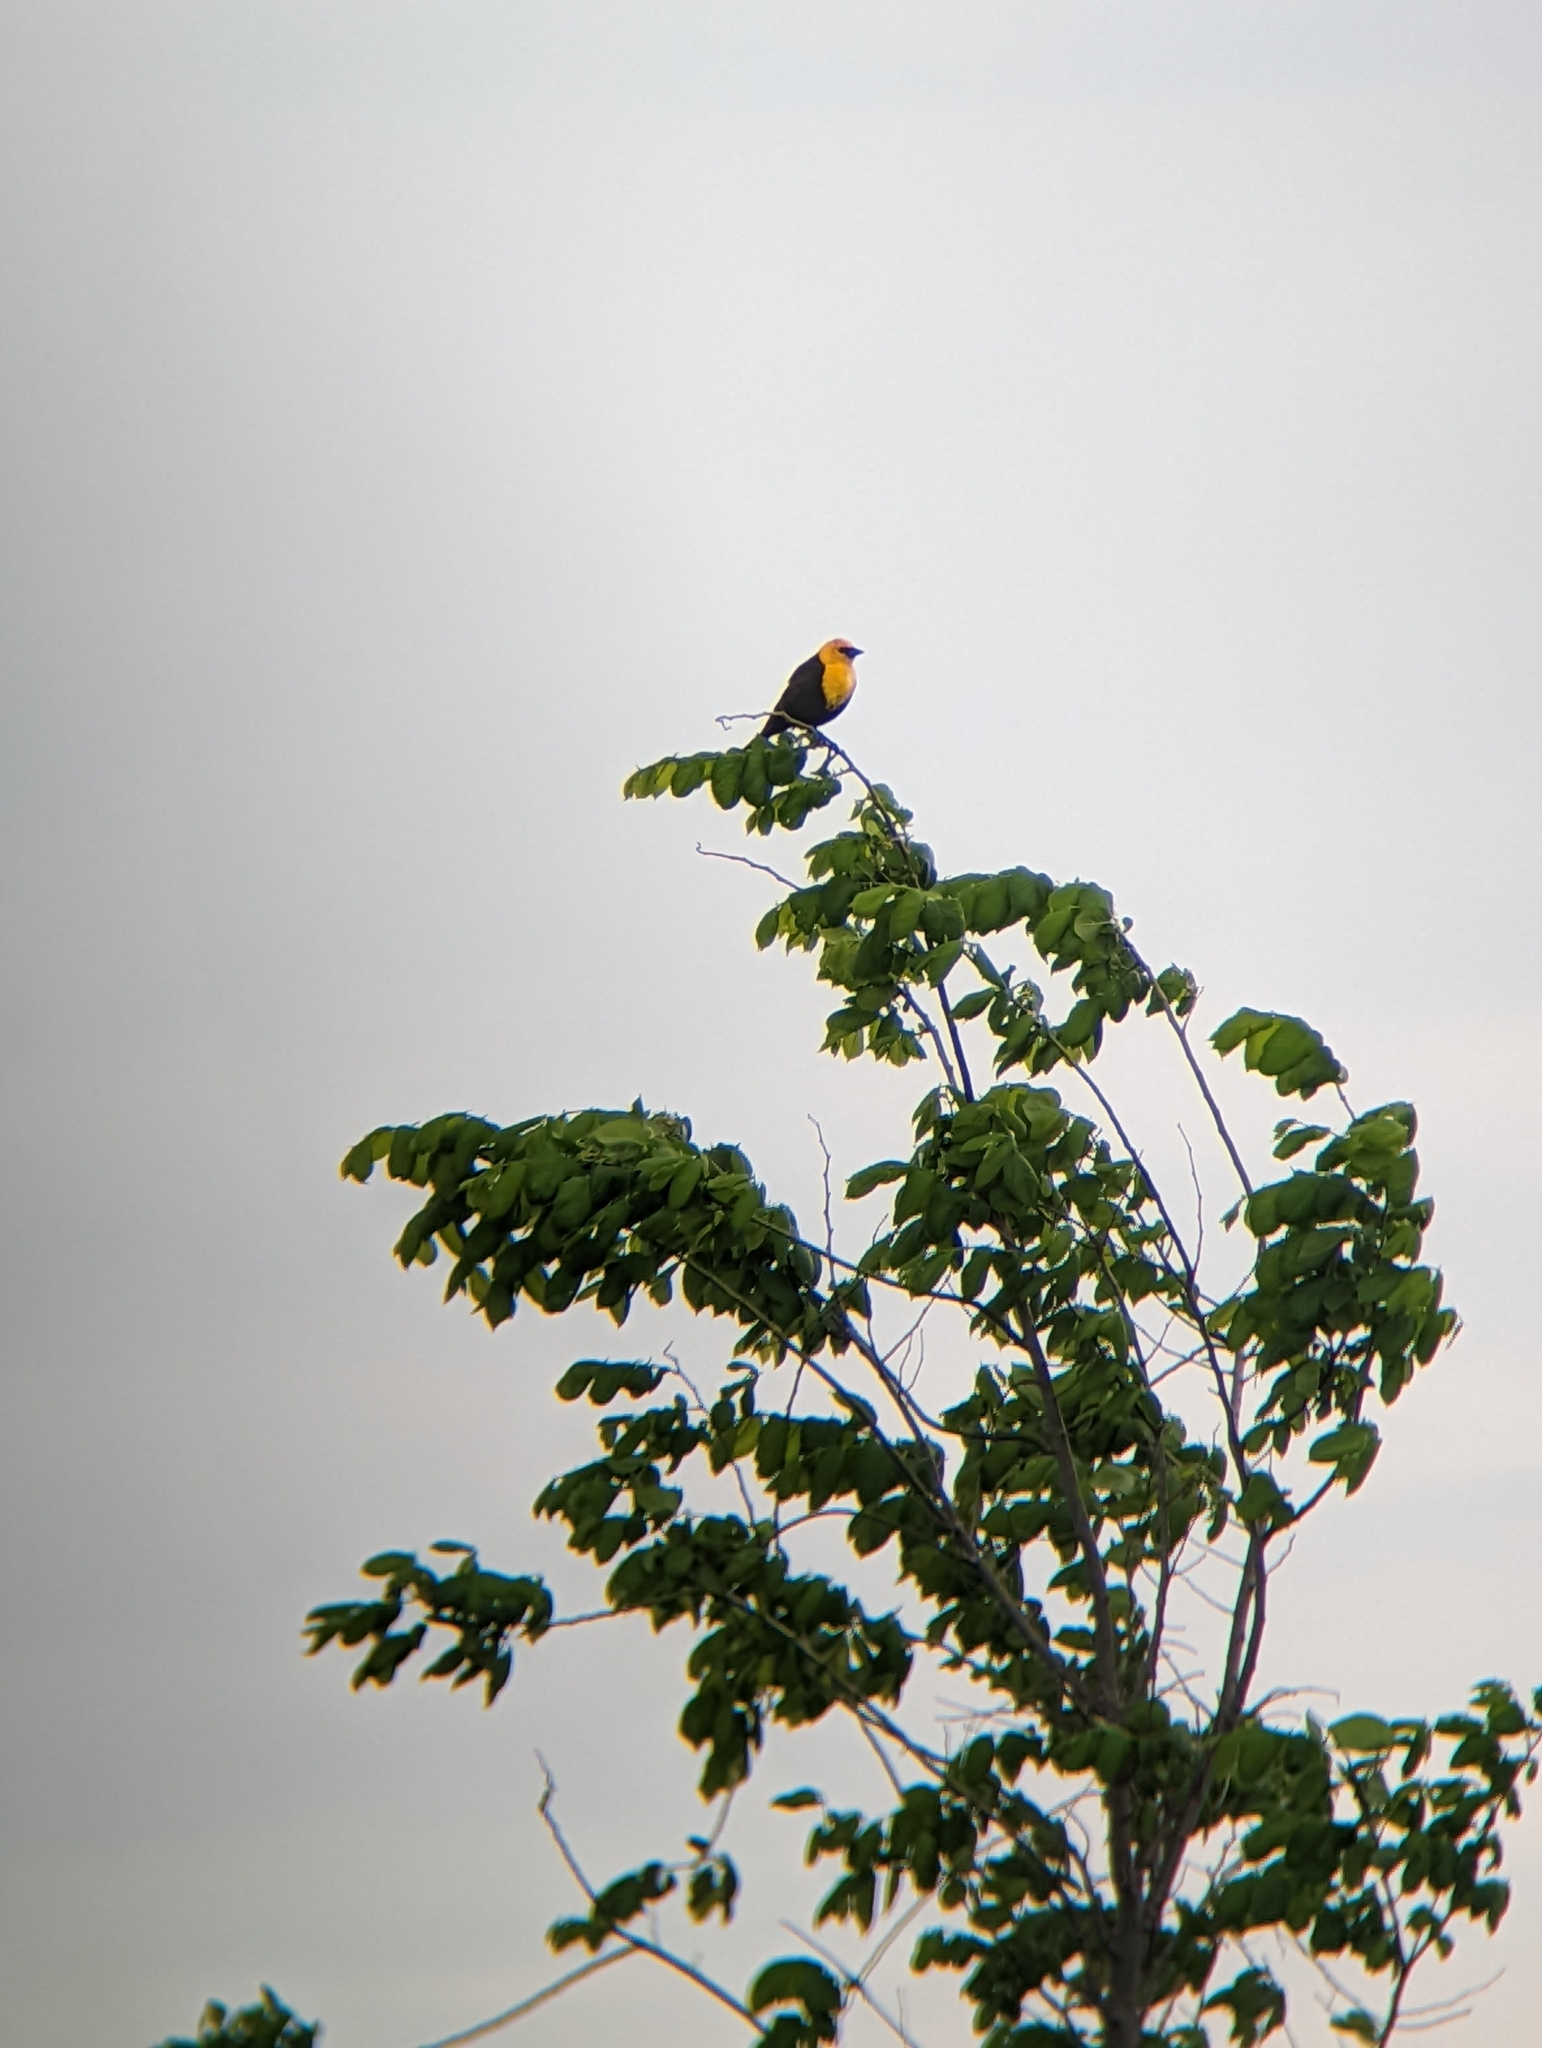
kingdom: Animalia
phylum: Chordata
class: Aves
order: Passeriformes
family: Icteridae
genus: Xanthocephalus
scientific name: Xanthocephalus xanthocephalus
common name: Yellow-headed blackbird
